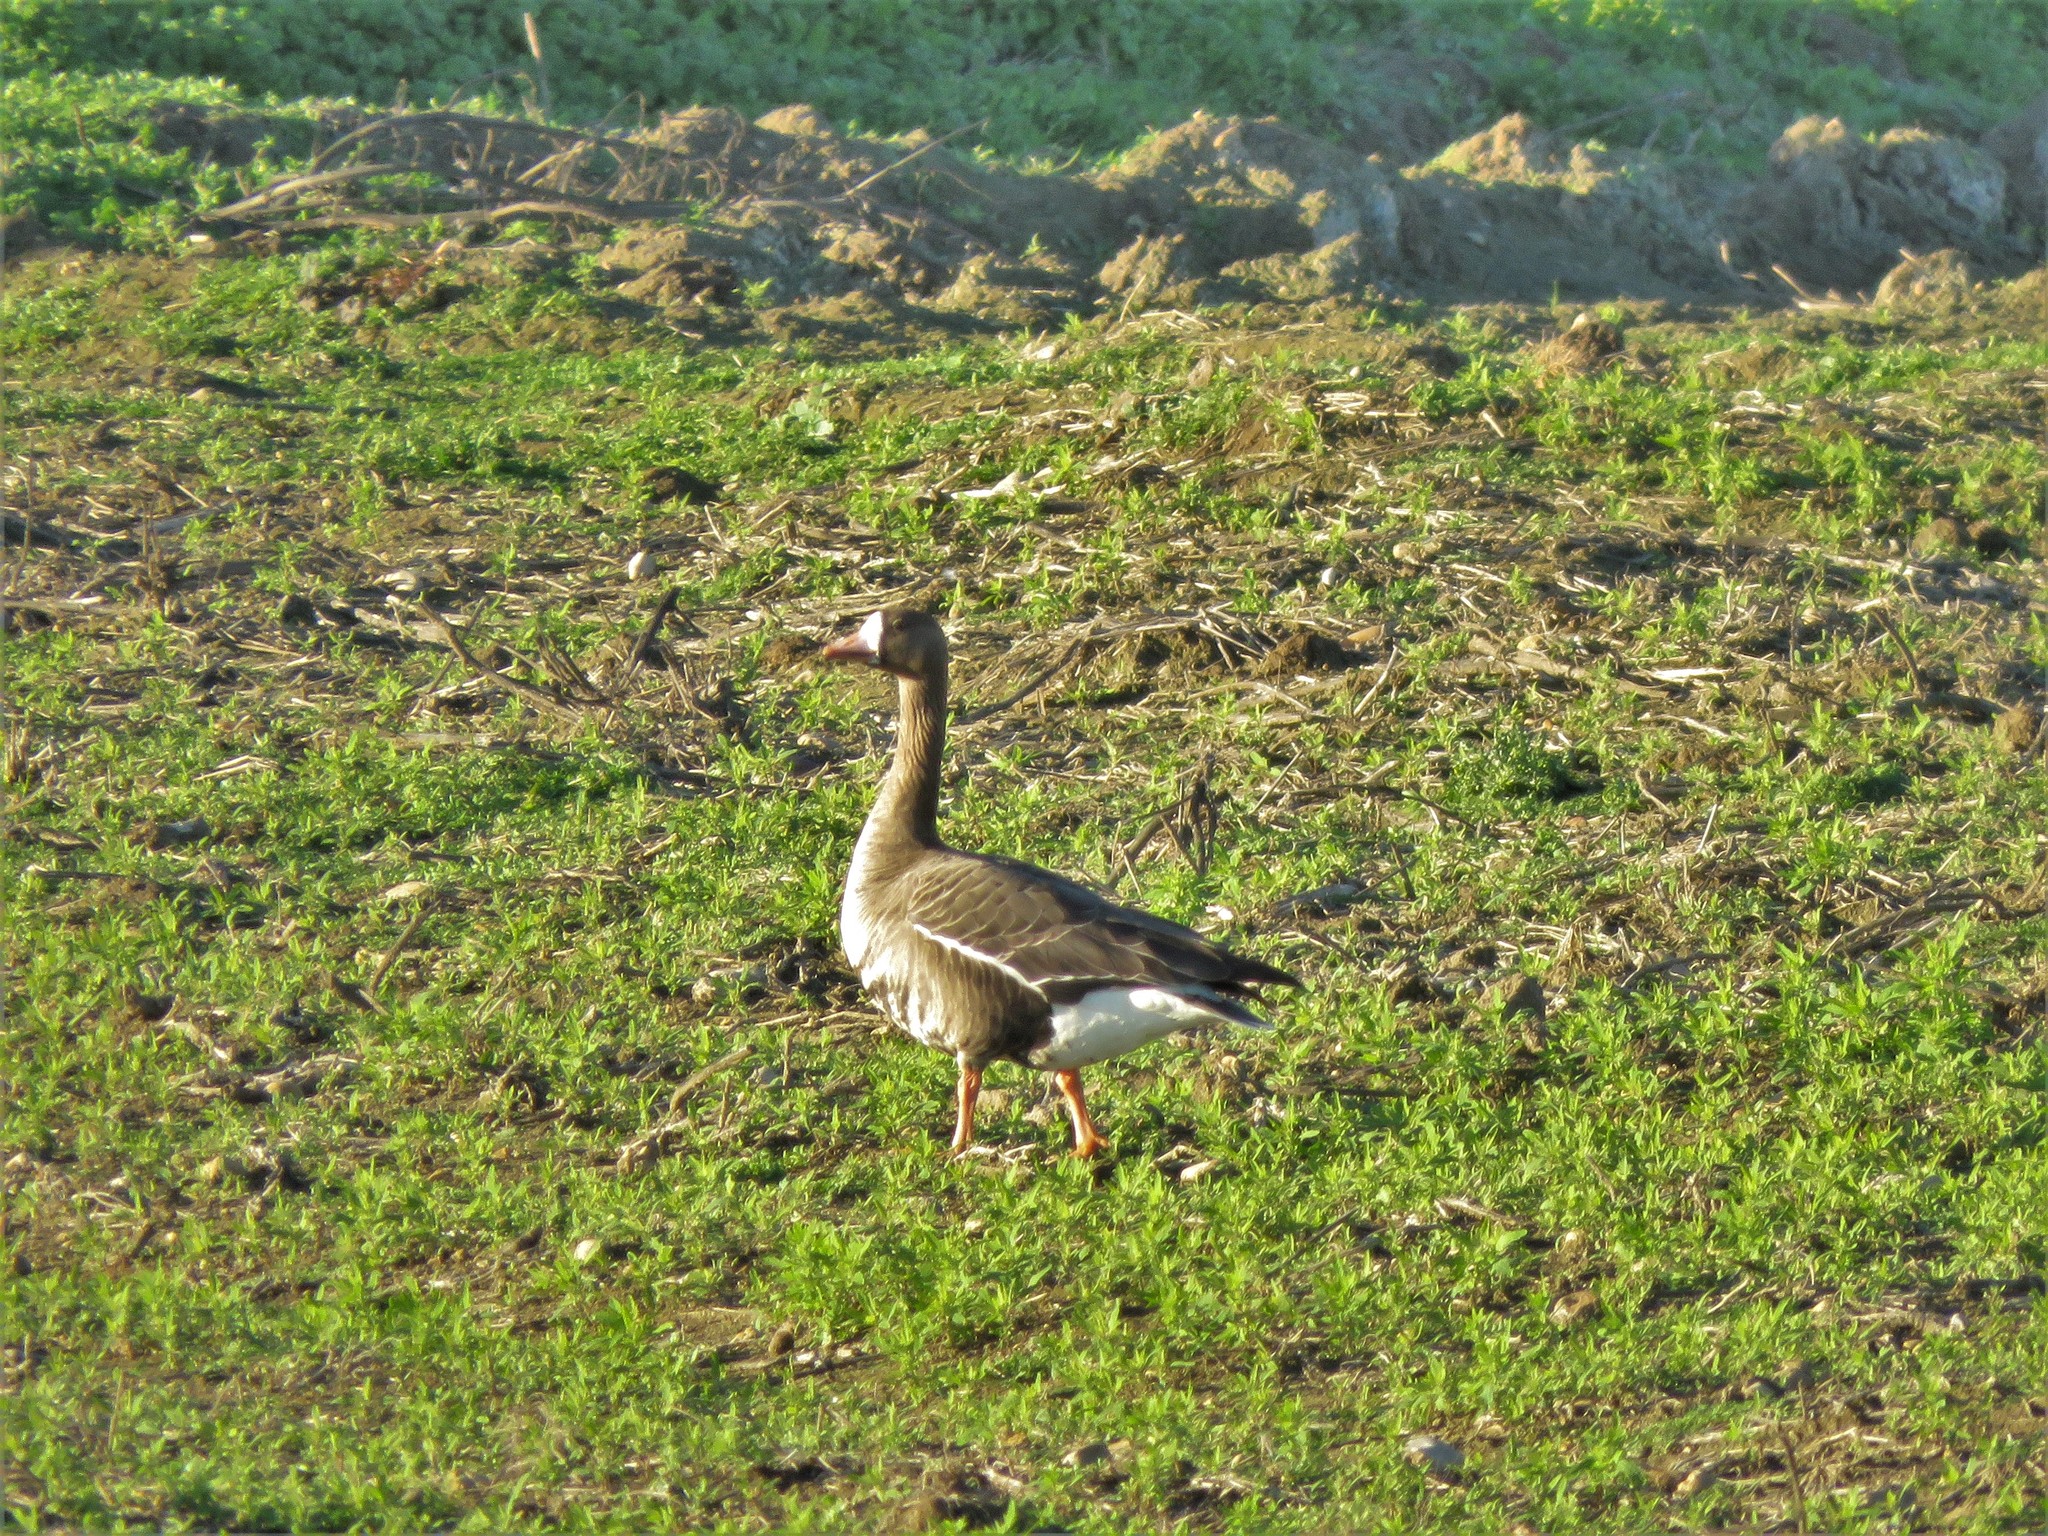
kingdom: Animalia
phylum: Chordata
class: Aves
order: Anseriformes
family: Anatidae
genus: Anser
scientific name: Anser albifrons
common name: Greater white-fronted goose
